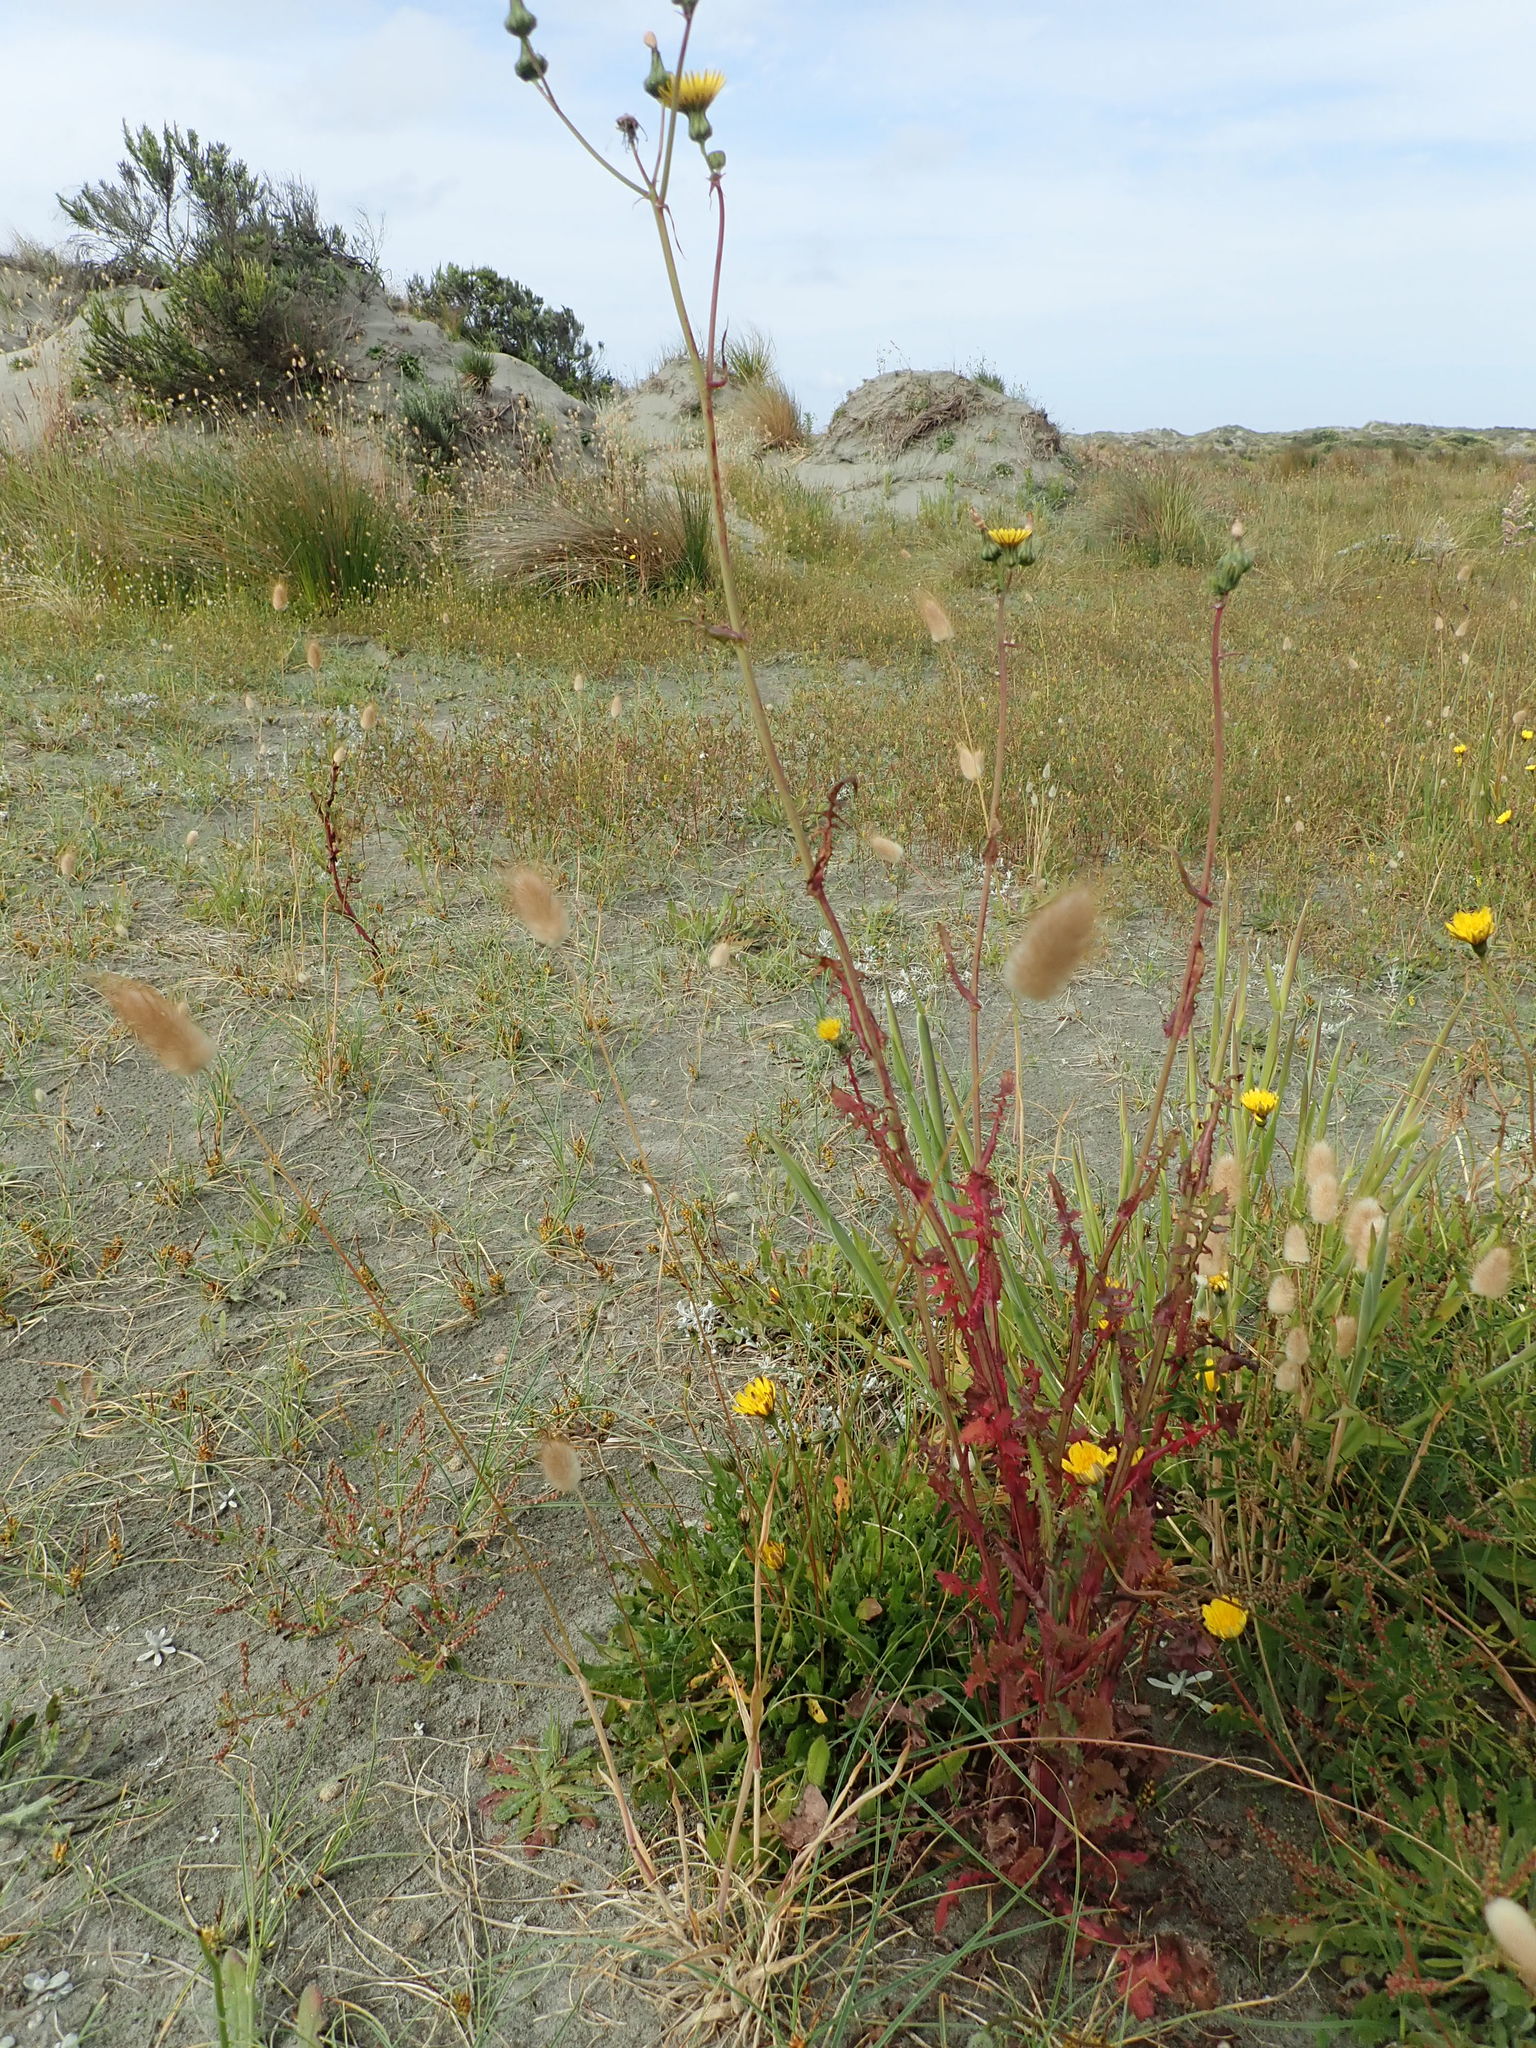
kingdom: Plantae
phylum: Tracheophyta
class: Magnoliopsida
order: Asterales
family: Asteraceae
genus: Sonchus
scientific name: Sonchus oleraceus
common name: Common sowthistle
